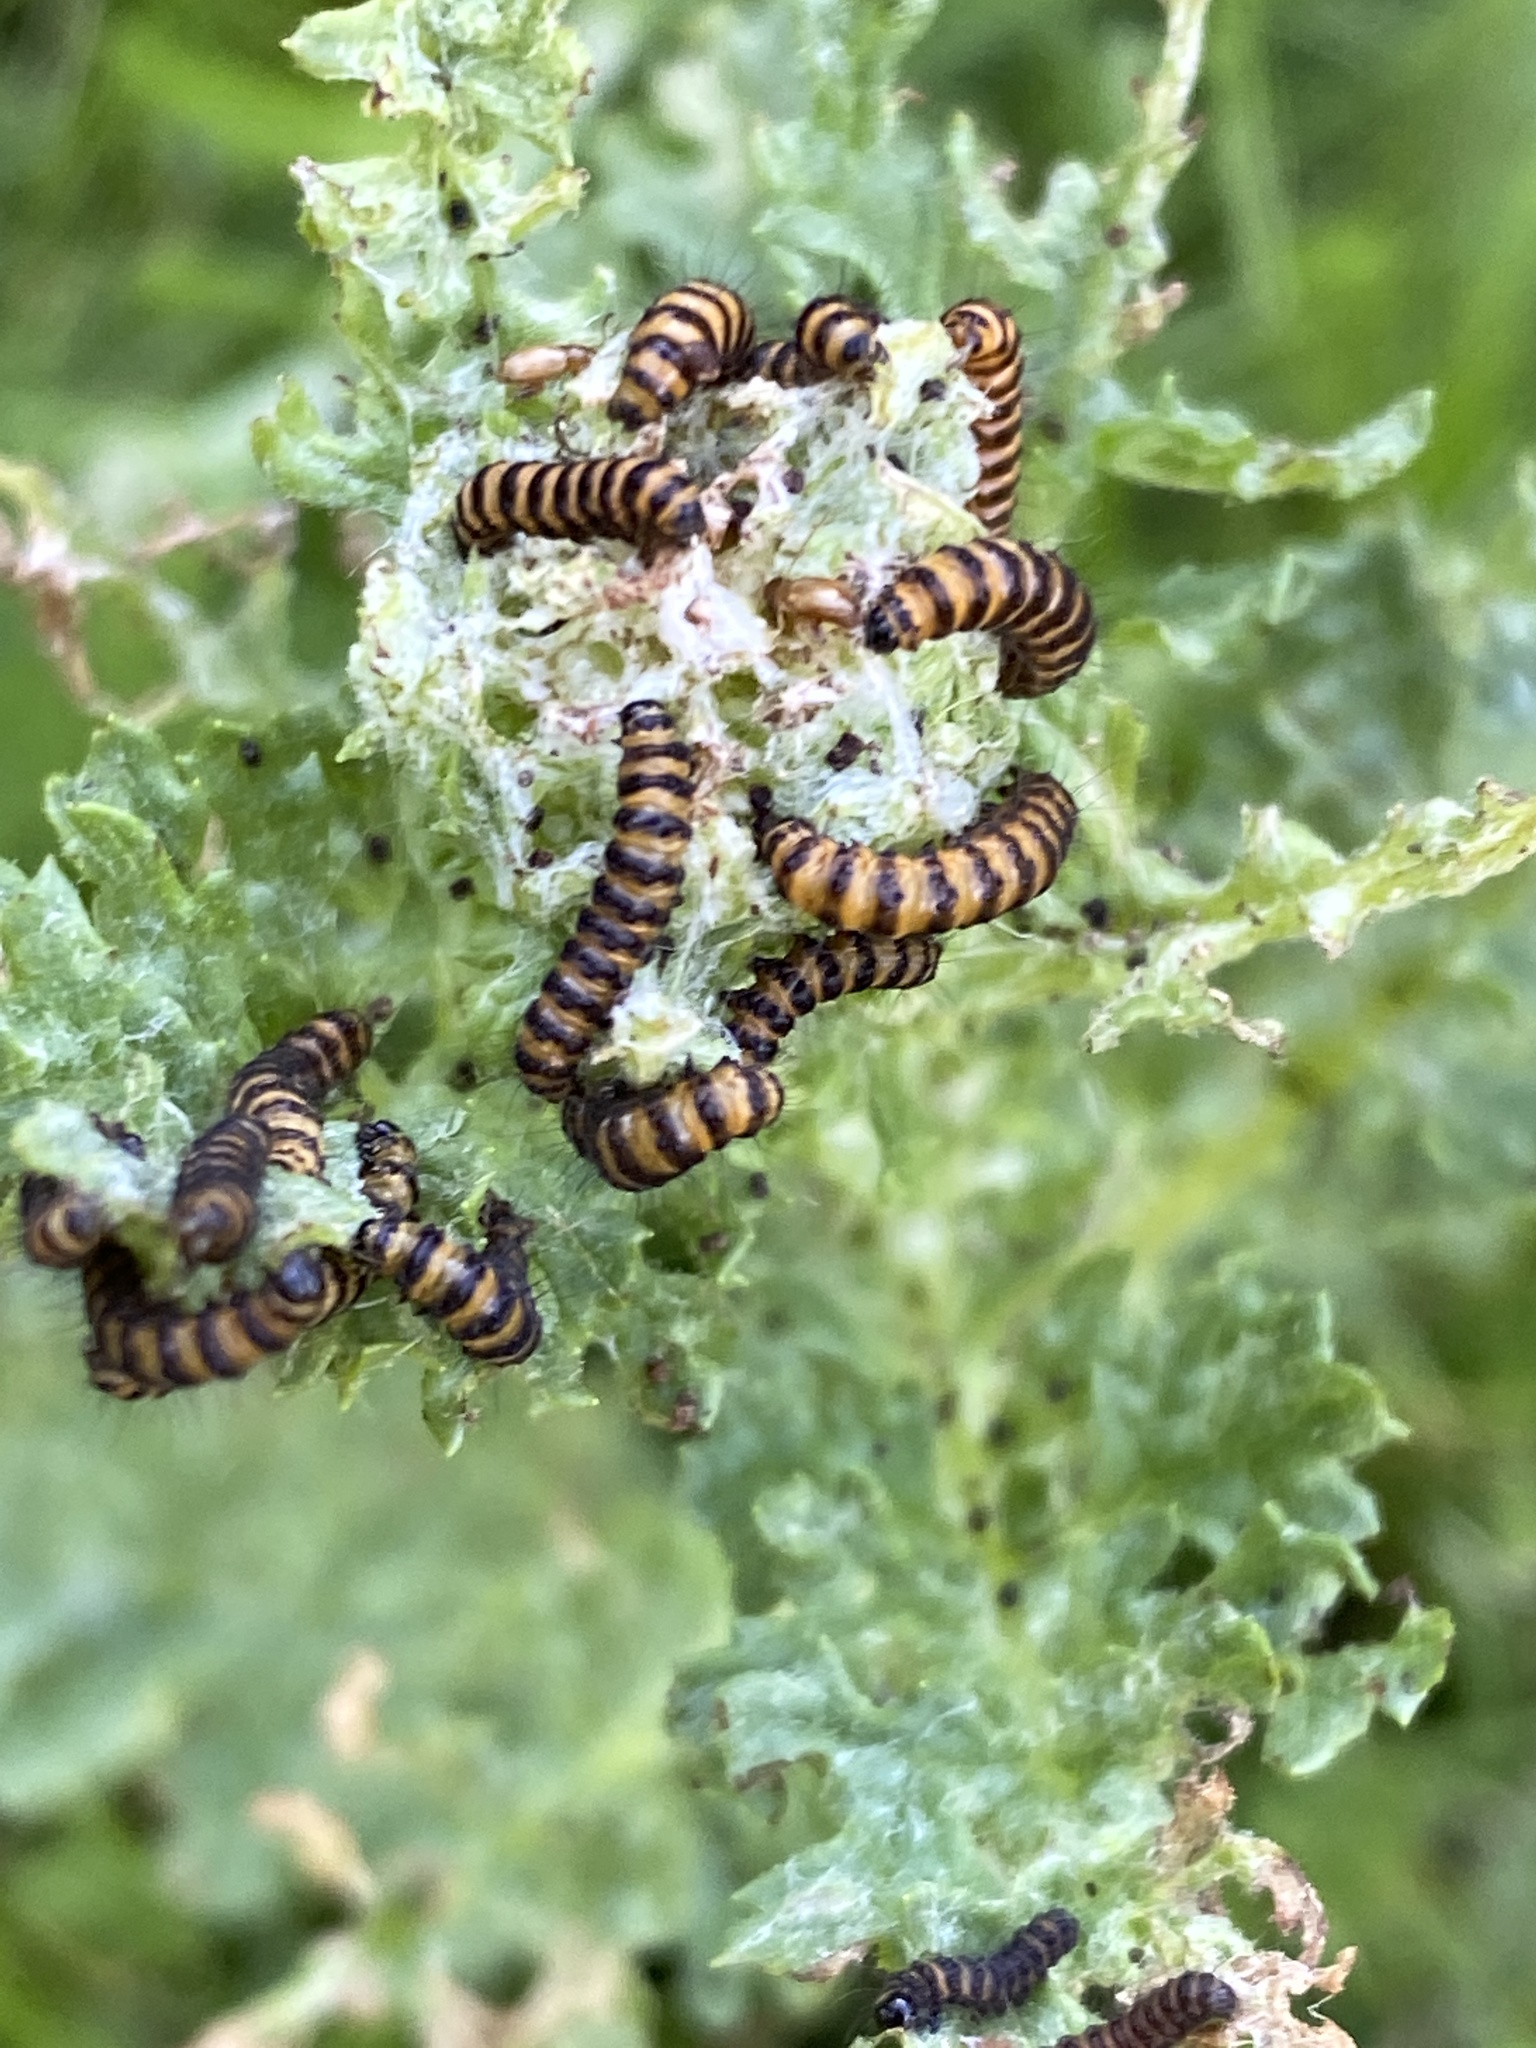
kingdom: Animalia
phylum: Arthropoda
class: Insecta
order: Lepidoptera
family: Erebidae
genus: Tyria
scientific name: Tyria jacobaeae
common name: Cinnabar
